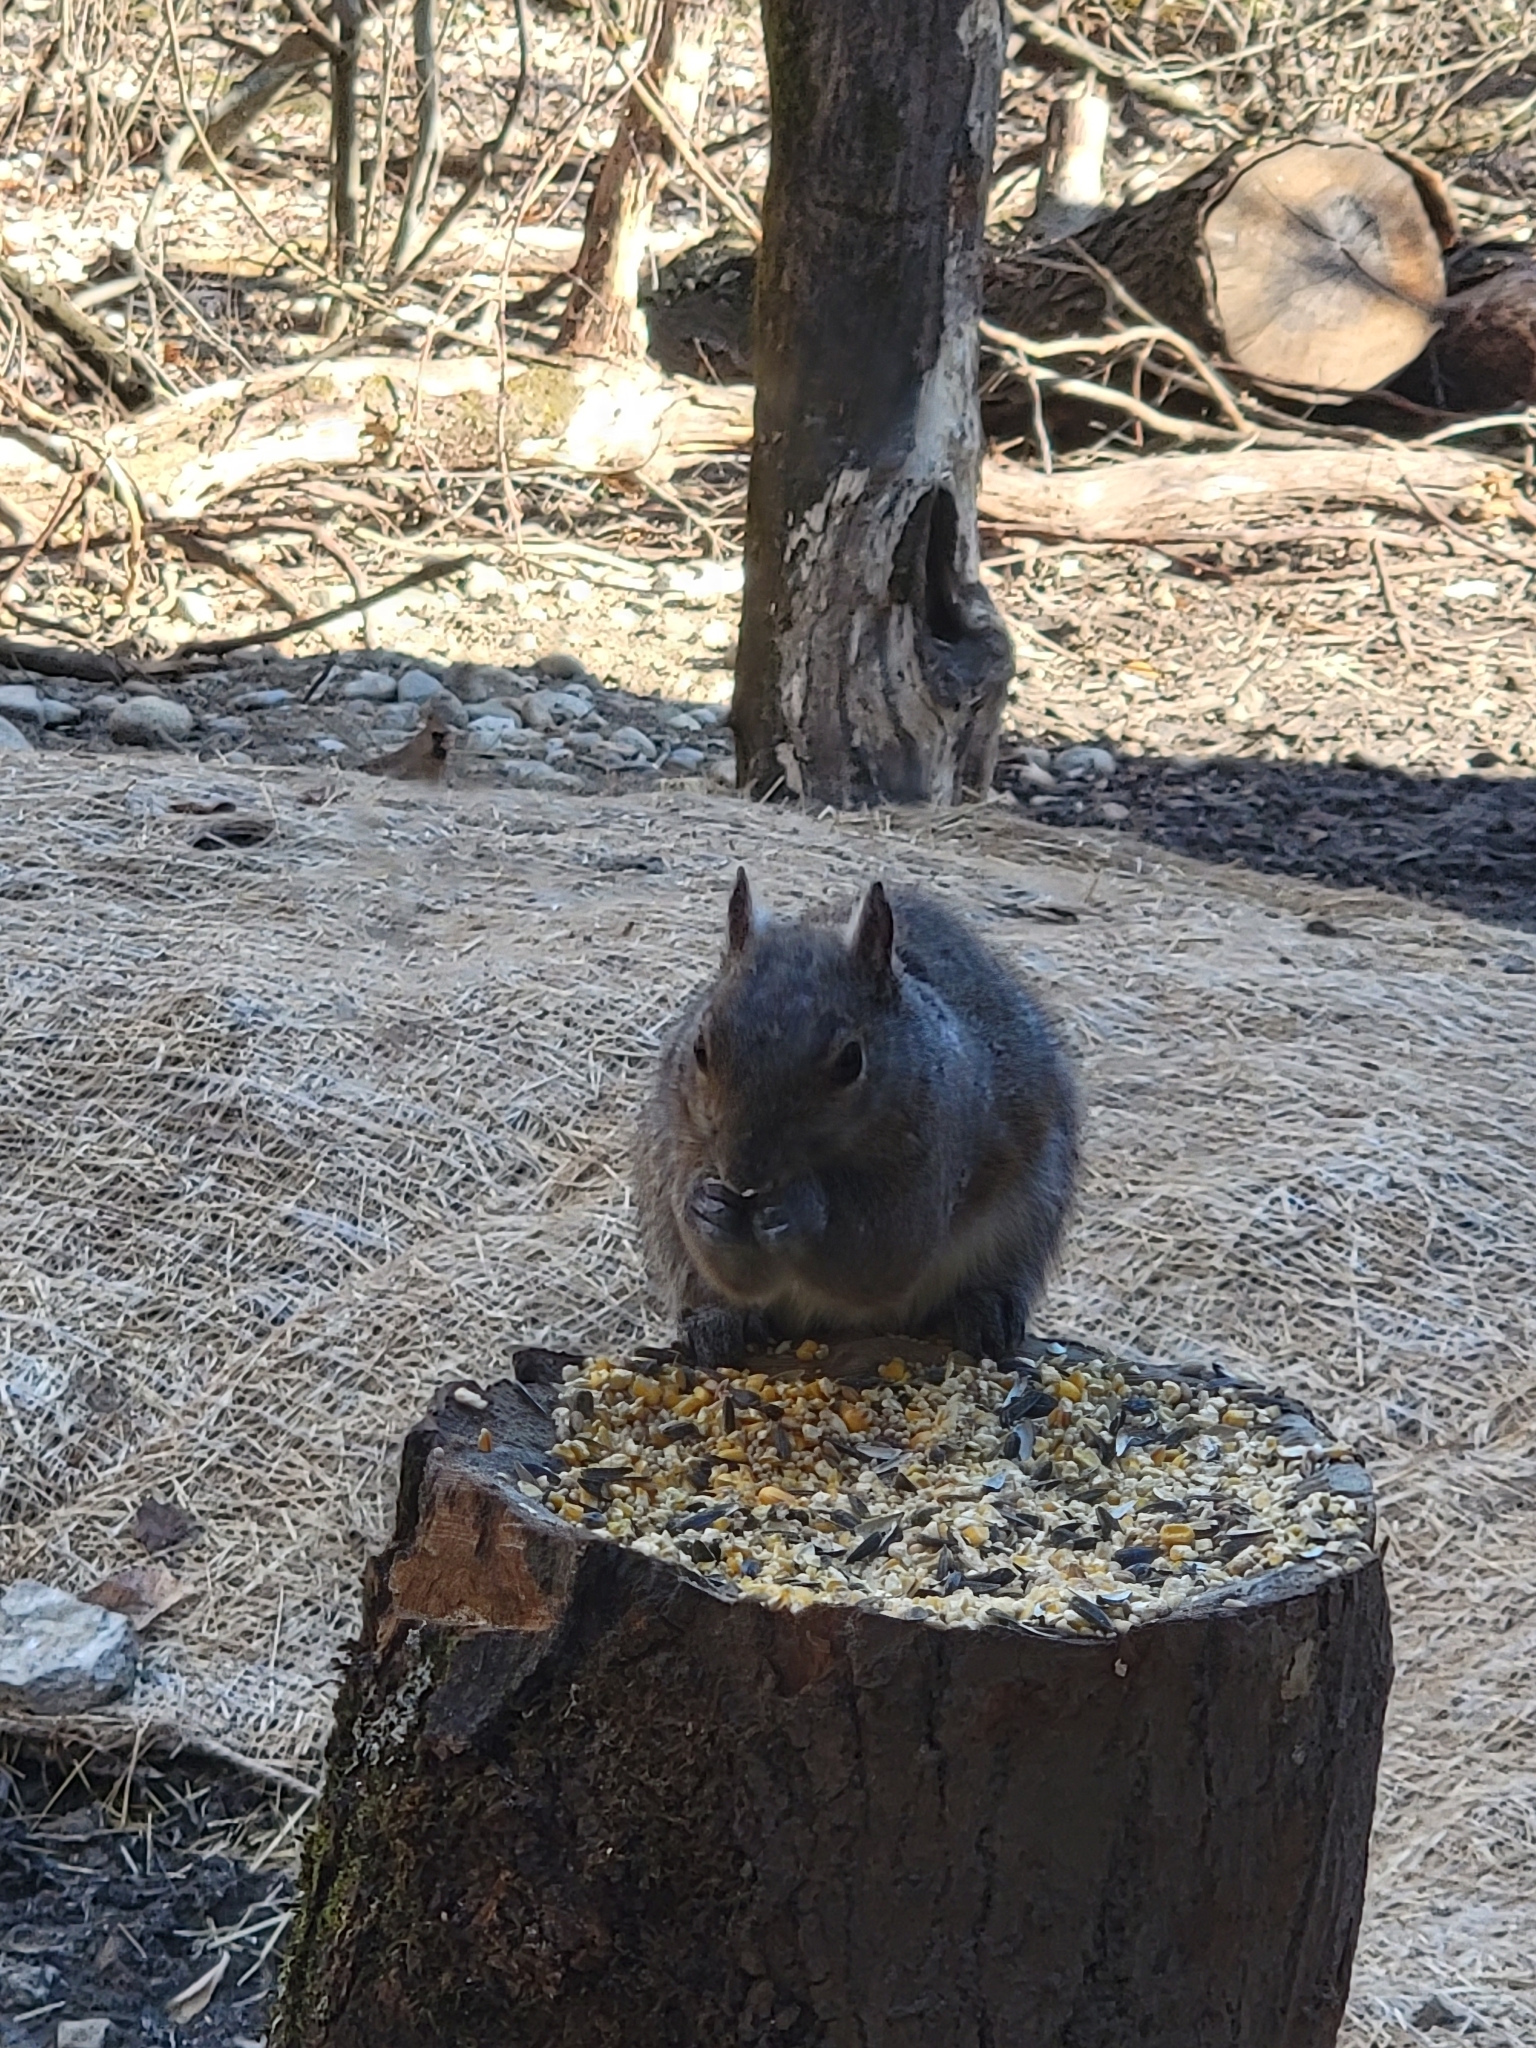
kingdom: Animalia
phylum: Chordata
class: Mammalia
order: Rodentia
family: Sciuridae
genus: Sciurus
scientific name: Sciurus carolinensis
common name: Eastern gray squirrel
